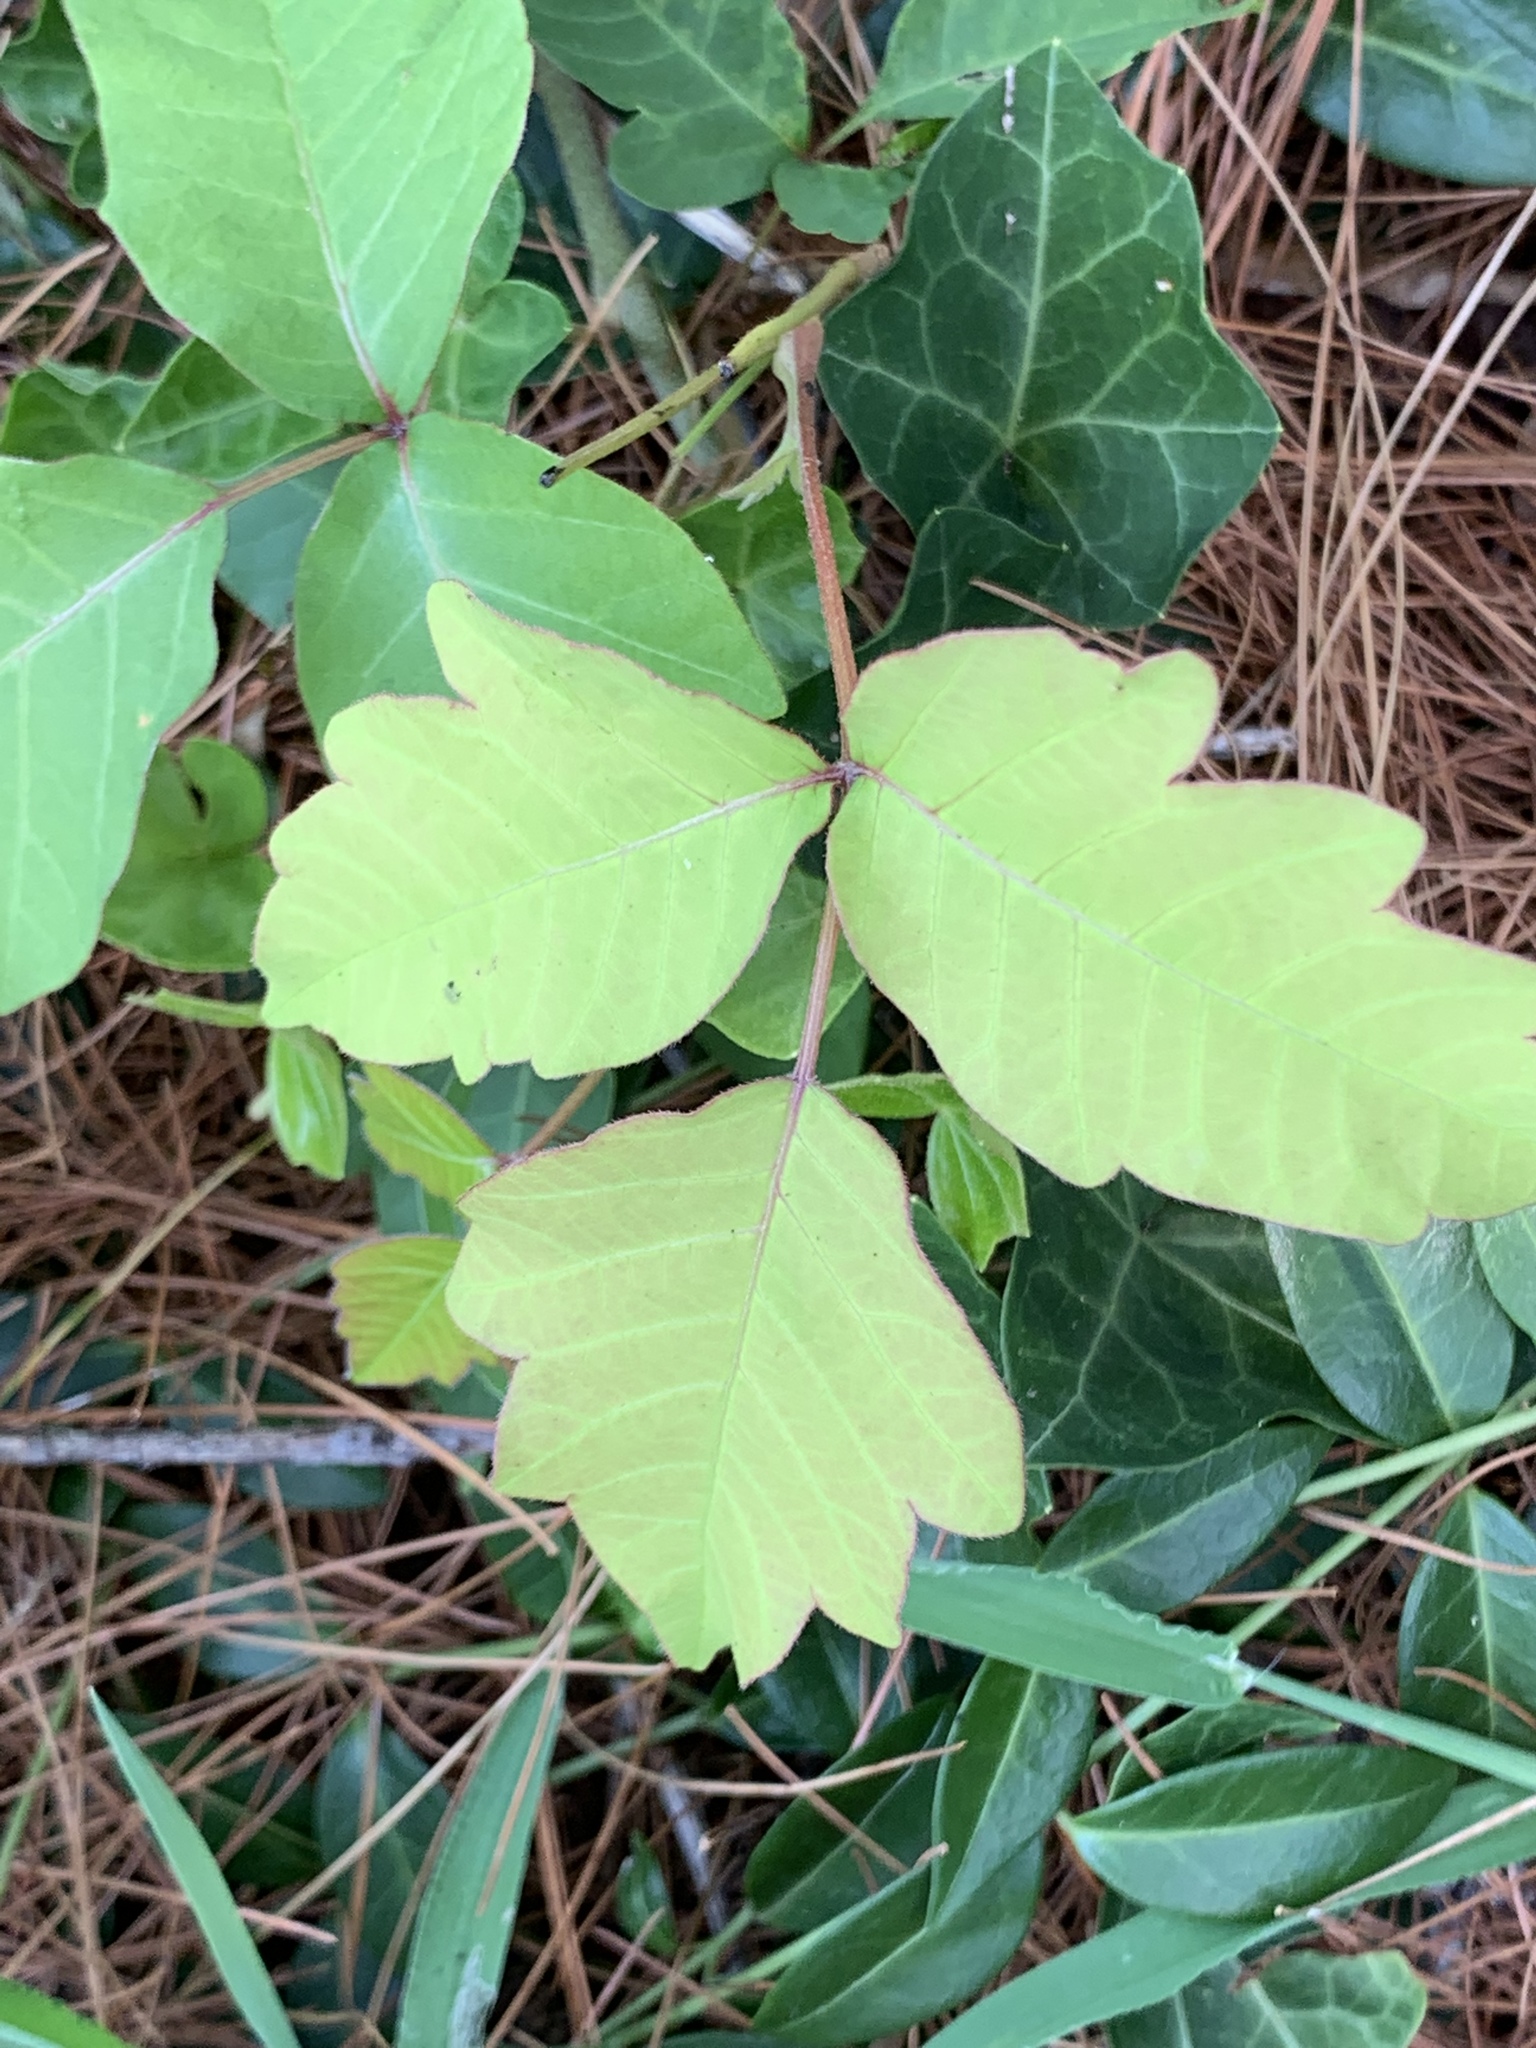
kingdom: Plantae
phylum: Tracheophyta
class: Magnoliopsida
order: Sapindales
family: Anacardiaceae
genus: Toxicodendron
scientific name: Toxicodendron radicans
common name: Poison ivy
